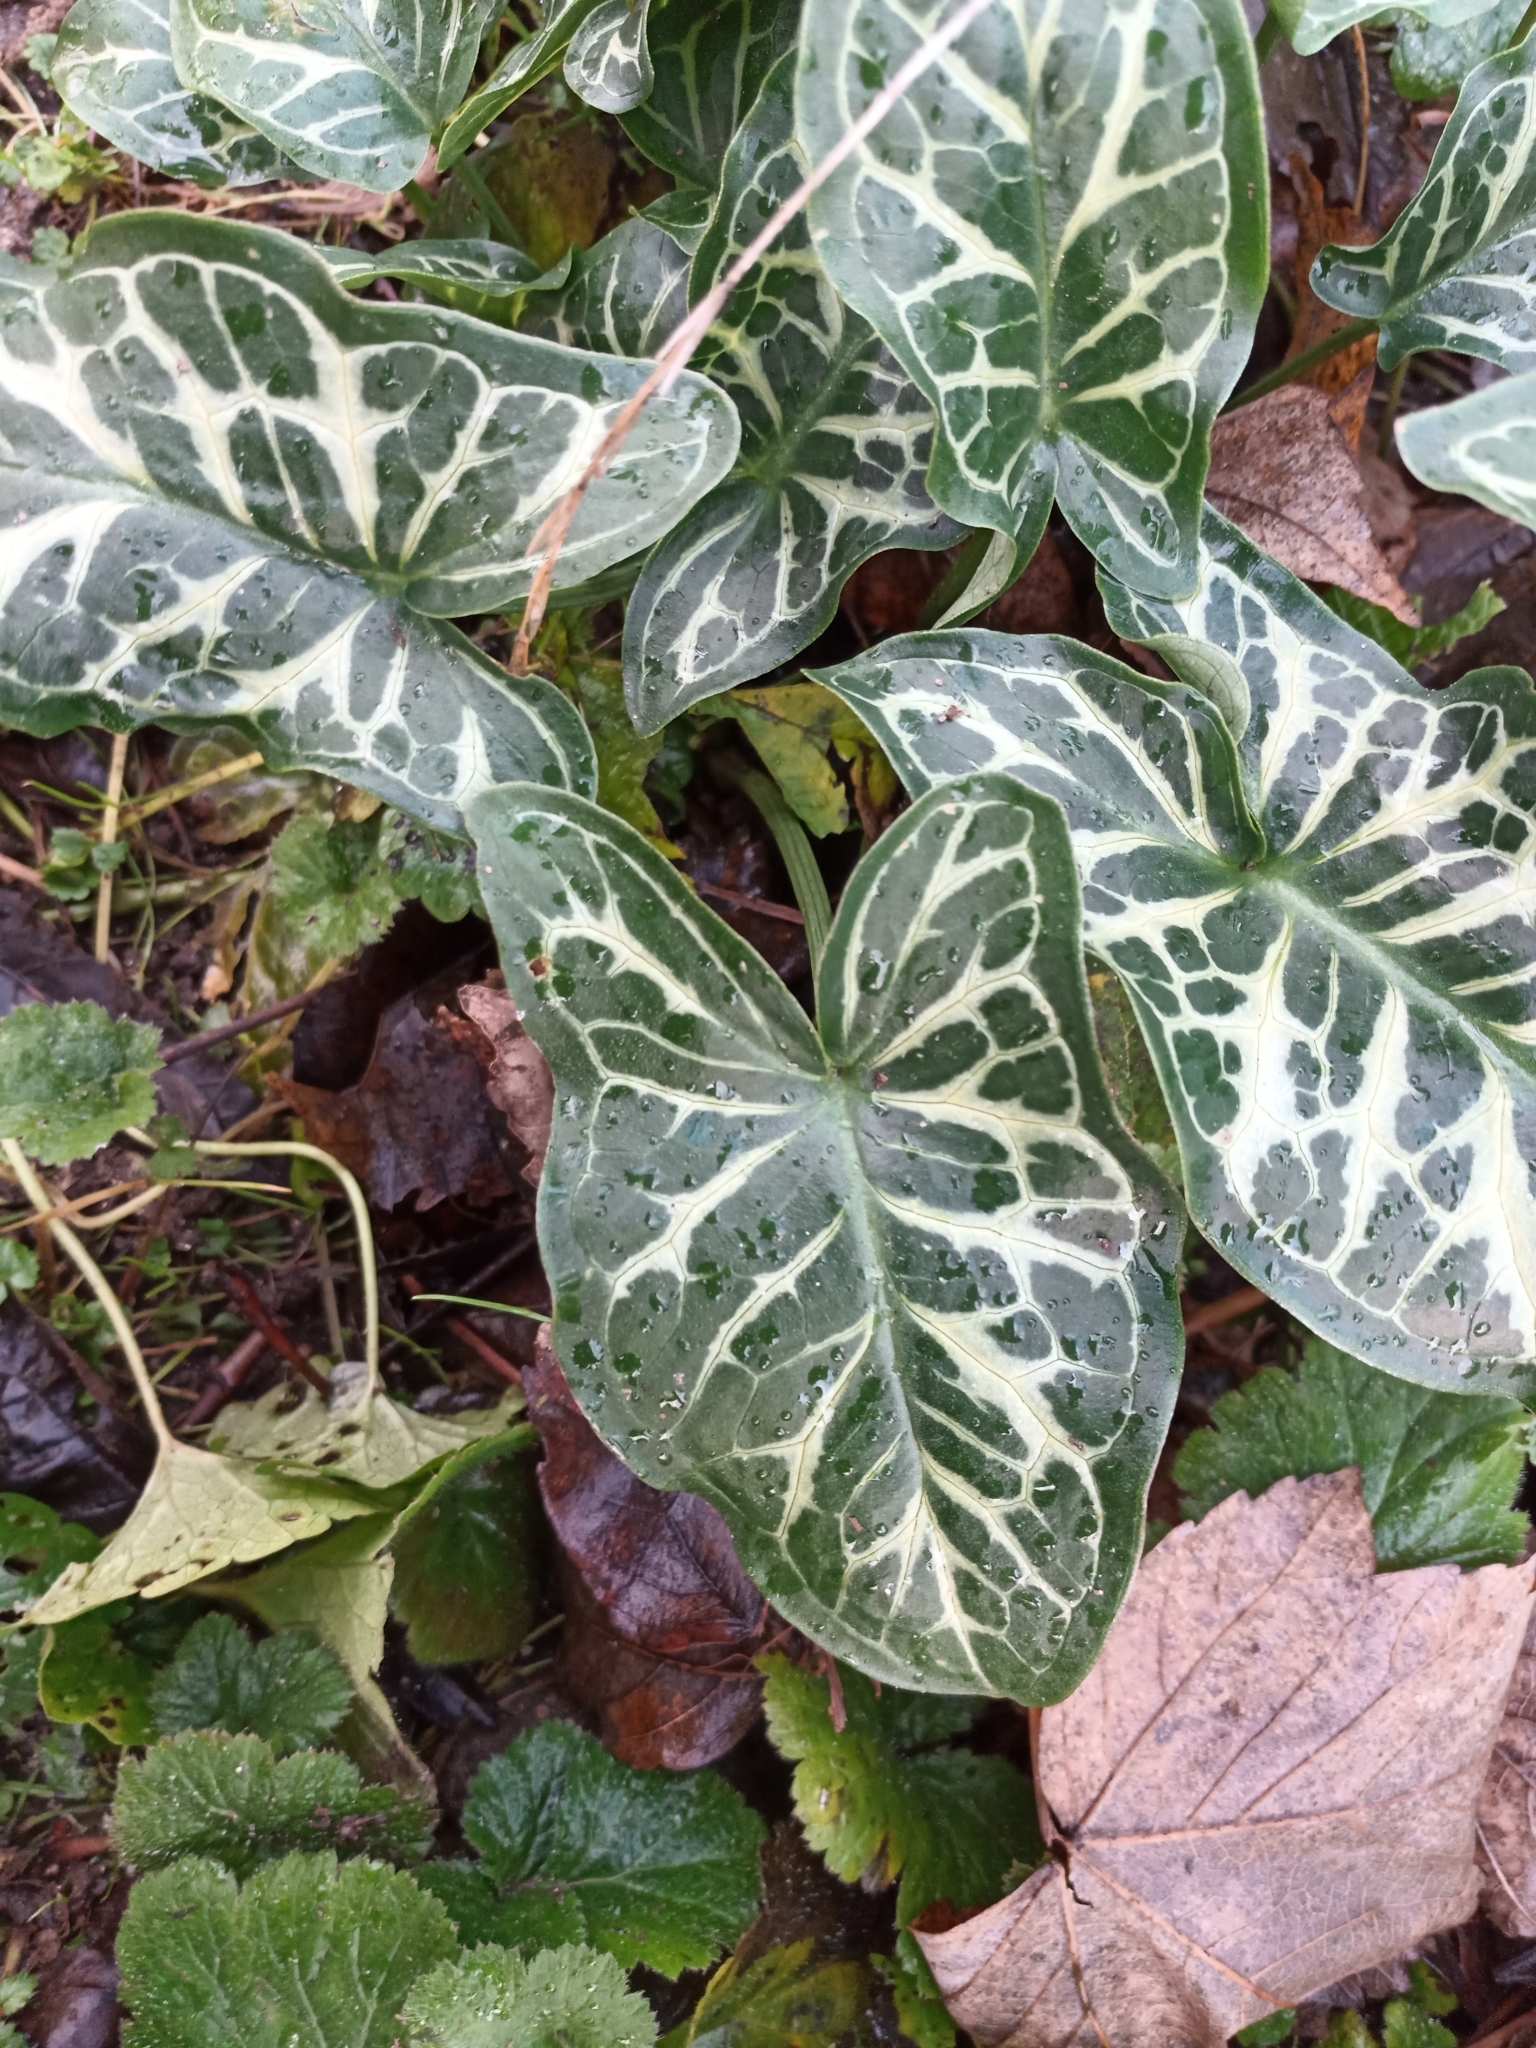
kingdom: Plantae
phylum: Tracheophyta
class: Liliopsida
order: Alismatales
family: Araceae
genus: Arum
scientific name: Arum italicum
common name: Italian lords-and-ladies
